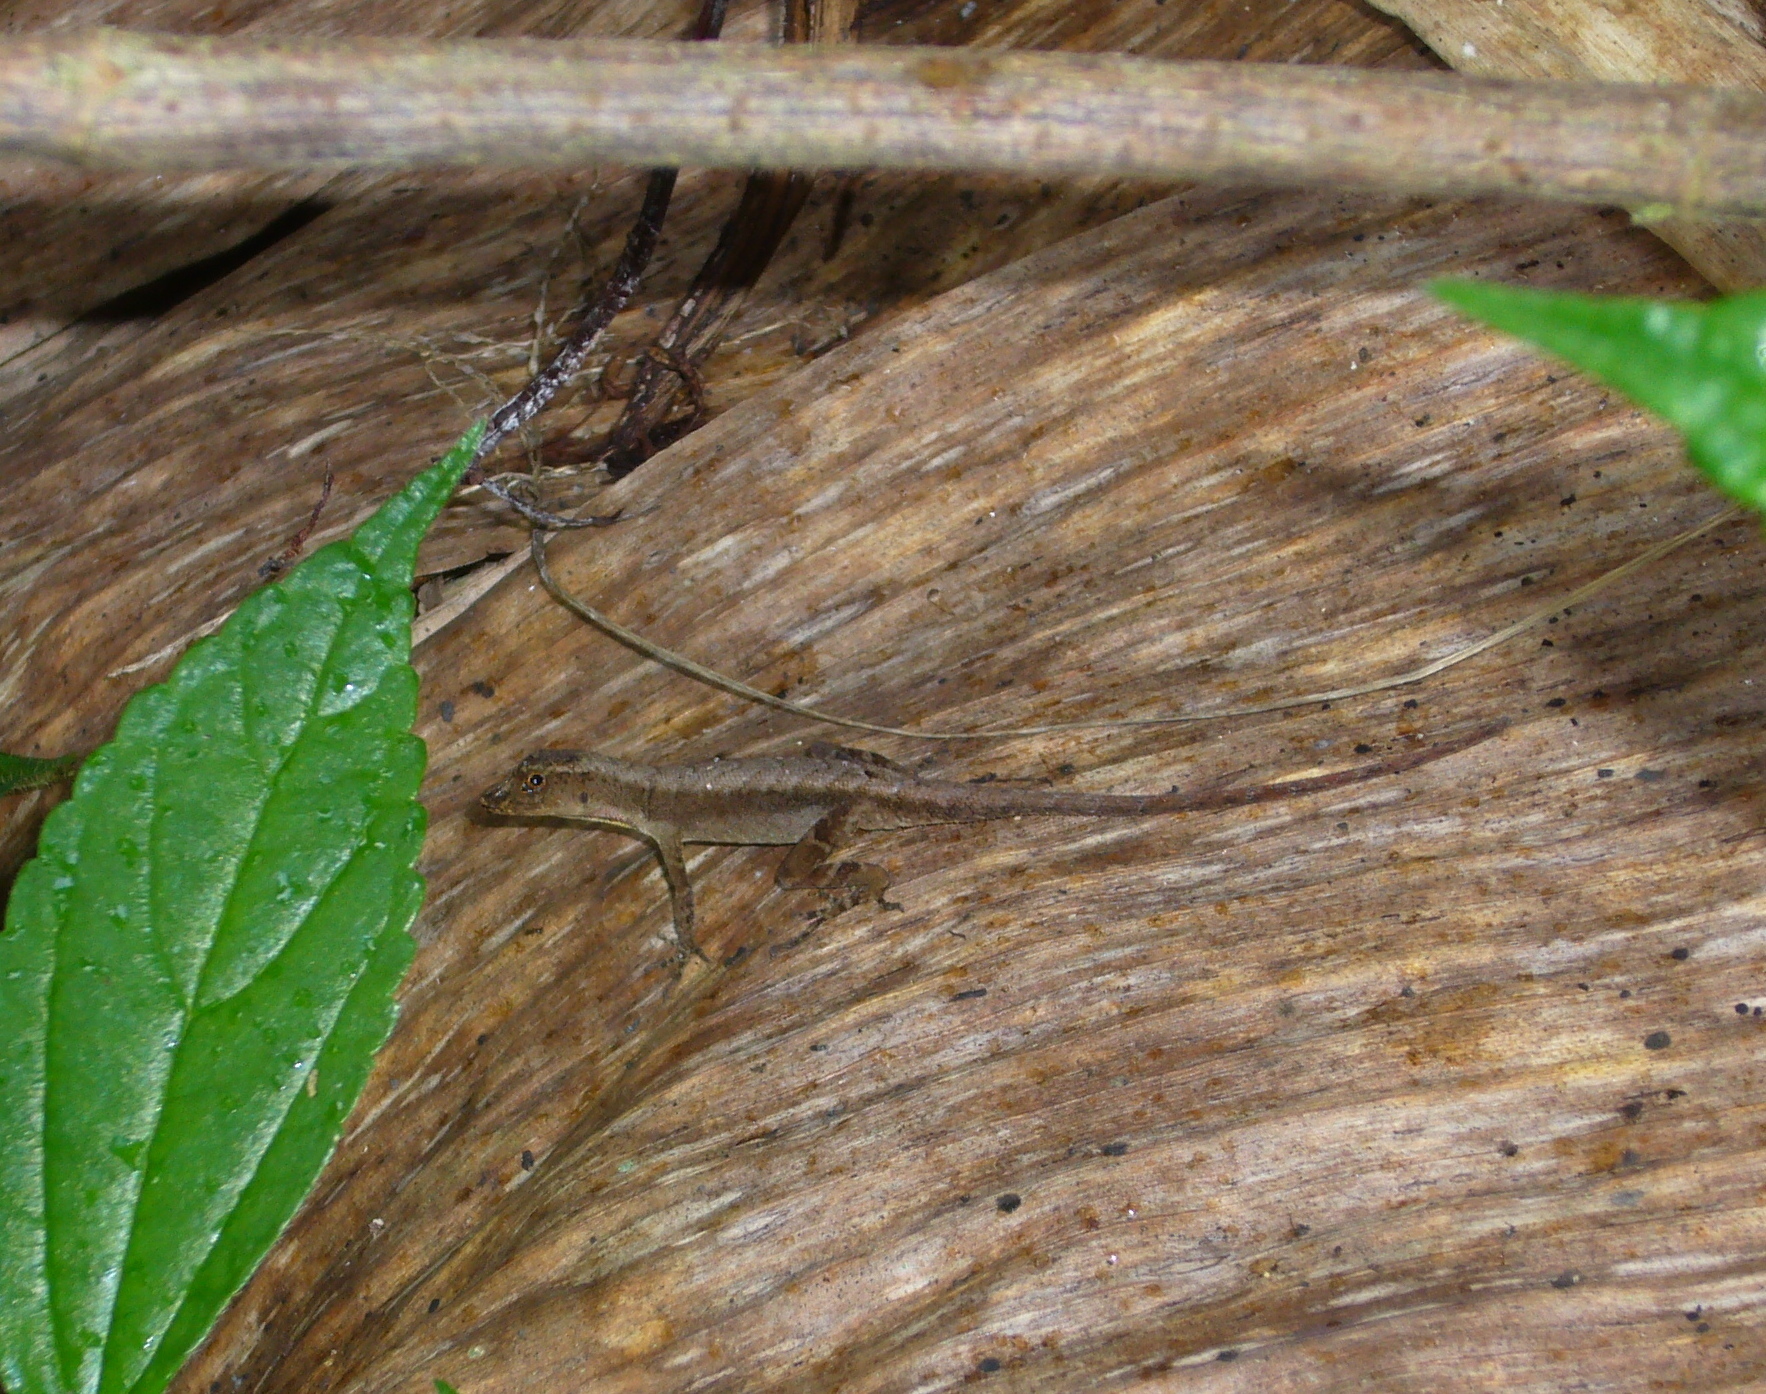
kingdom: Animalia
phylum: Chordata
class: Squamata
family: Dactyloidae
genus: Anolis
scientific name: Anolis humilis
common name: Humble anole
